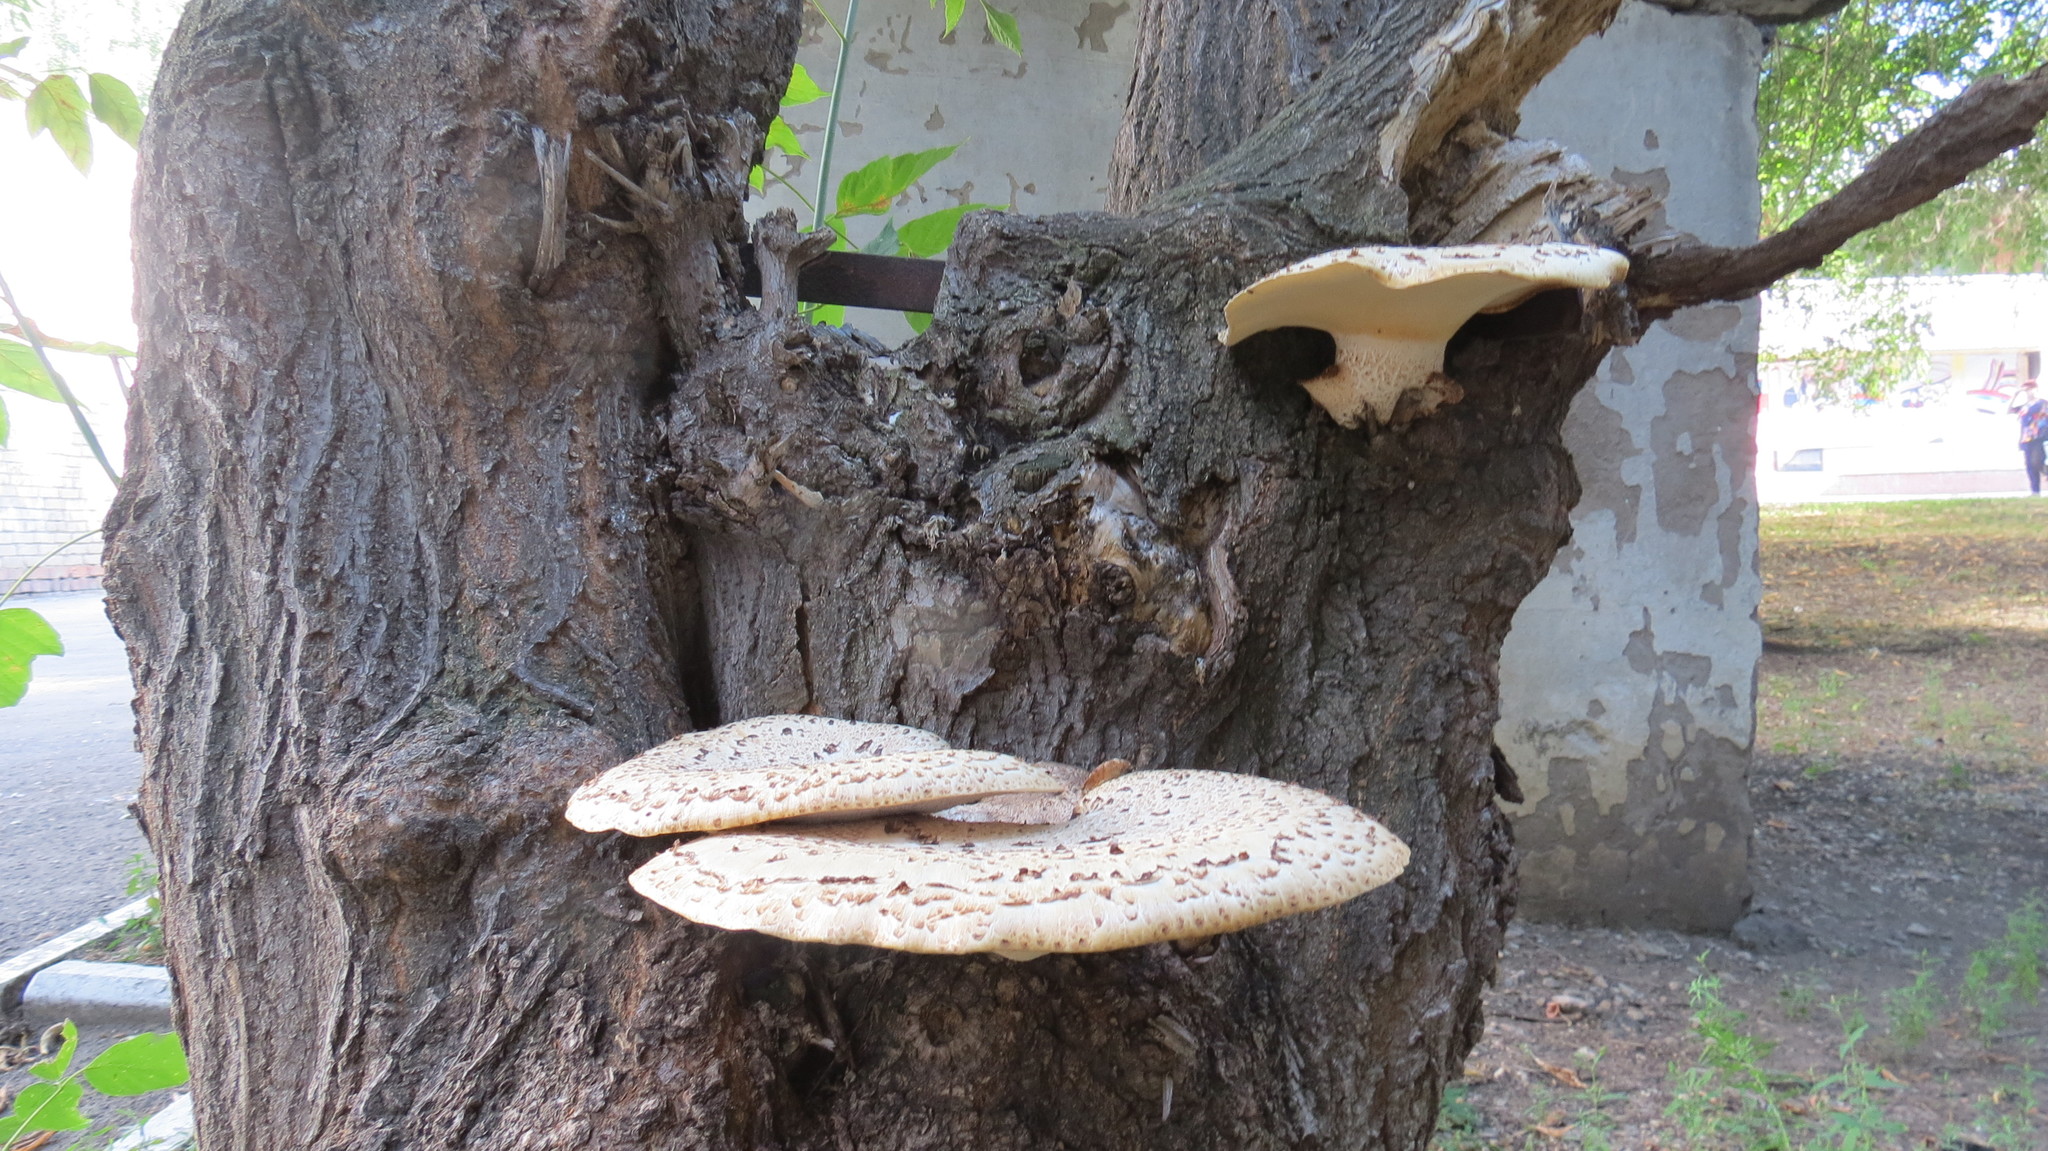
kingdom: Fungi
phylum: Basidiomycota
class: Agaricomycetes
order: Polyporales
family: Polyporaceae
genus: Cerioporus
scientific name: Cerioporus squamosus
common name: Dryad's saddle
